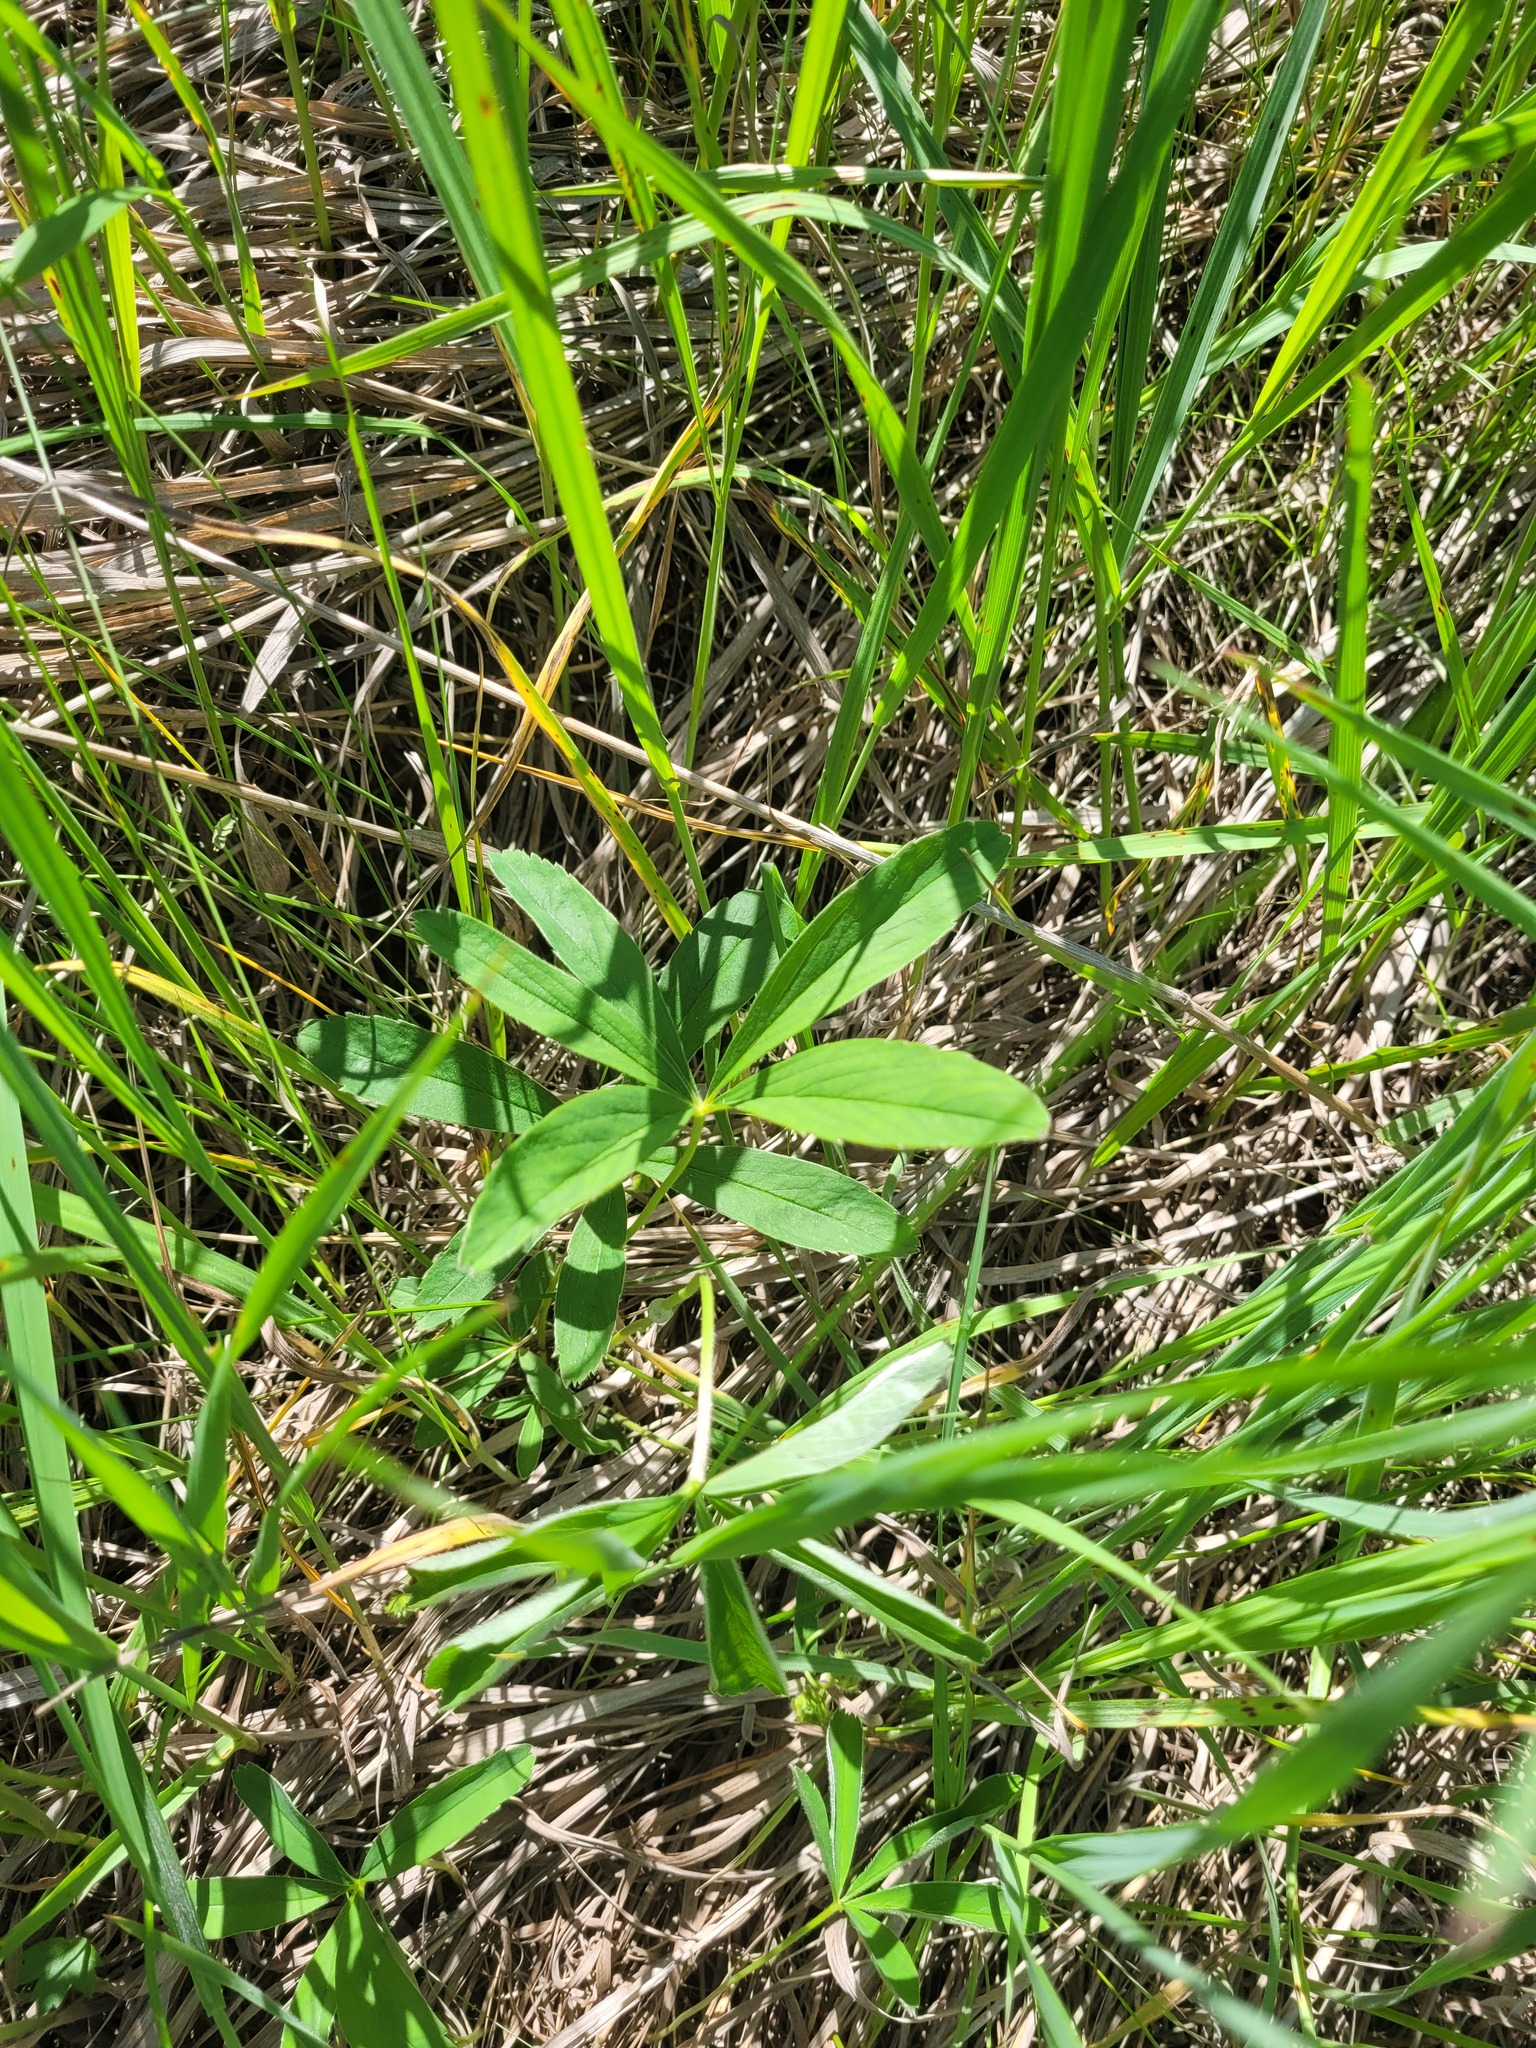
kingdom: Plantae
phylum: Tracheophyta
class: Magnoliopsida
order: Rosales
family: Rosaceae
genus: Potentilla
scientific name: Potentilla alba
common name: White cinquefoil
